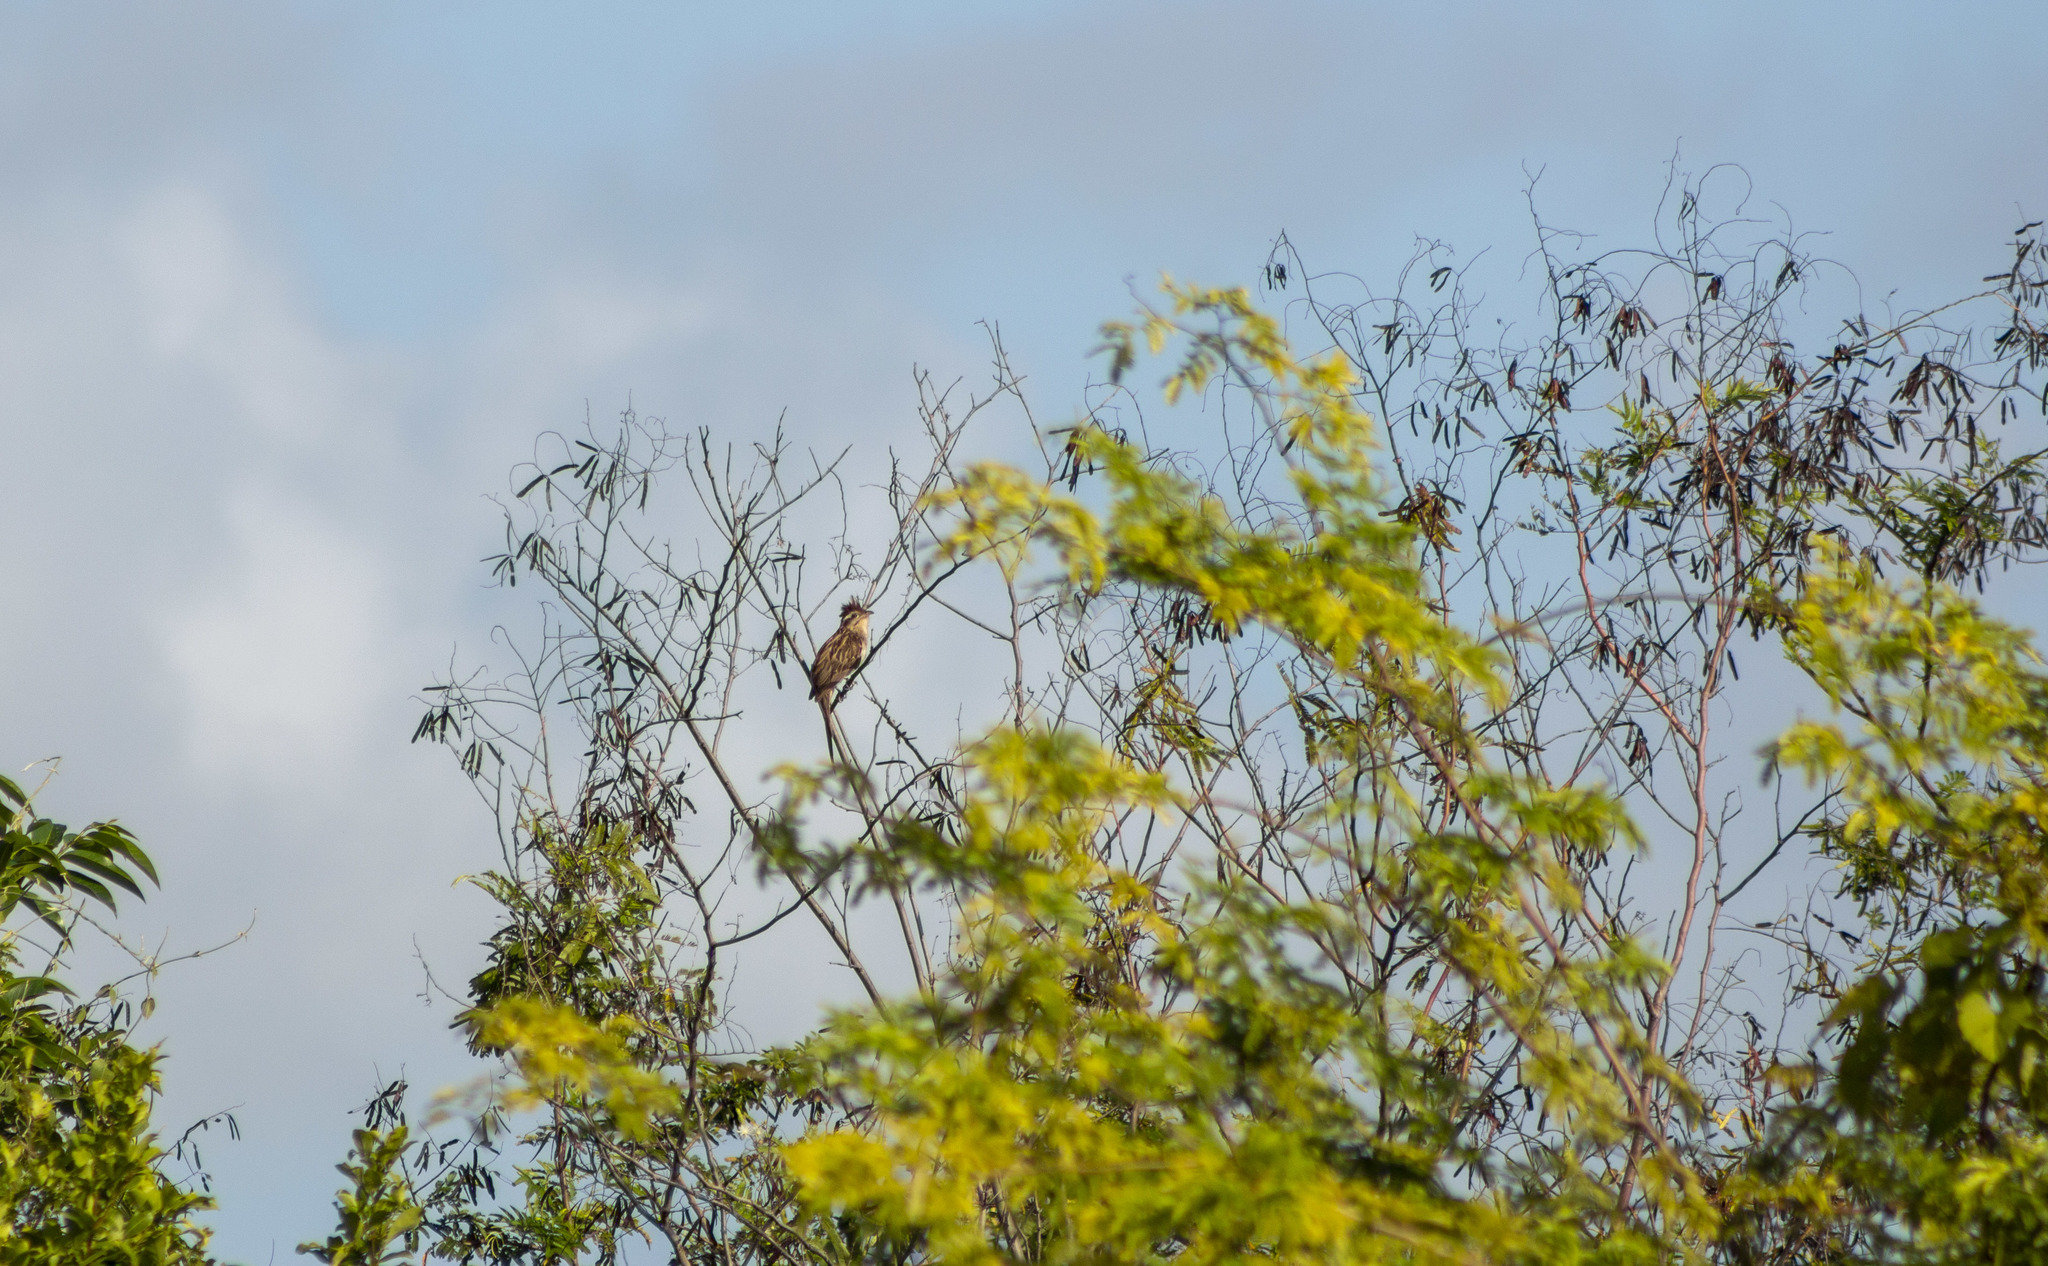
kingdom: Animalia
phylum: Chordata
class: Aves
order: Cuculiformes
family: Cuculidae
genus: Tapera
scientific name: Tapera naevia
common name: Striped cuckoo
